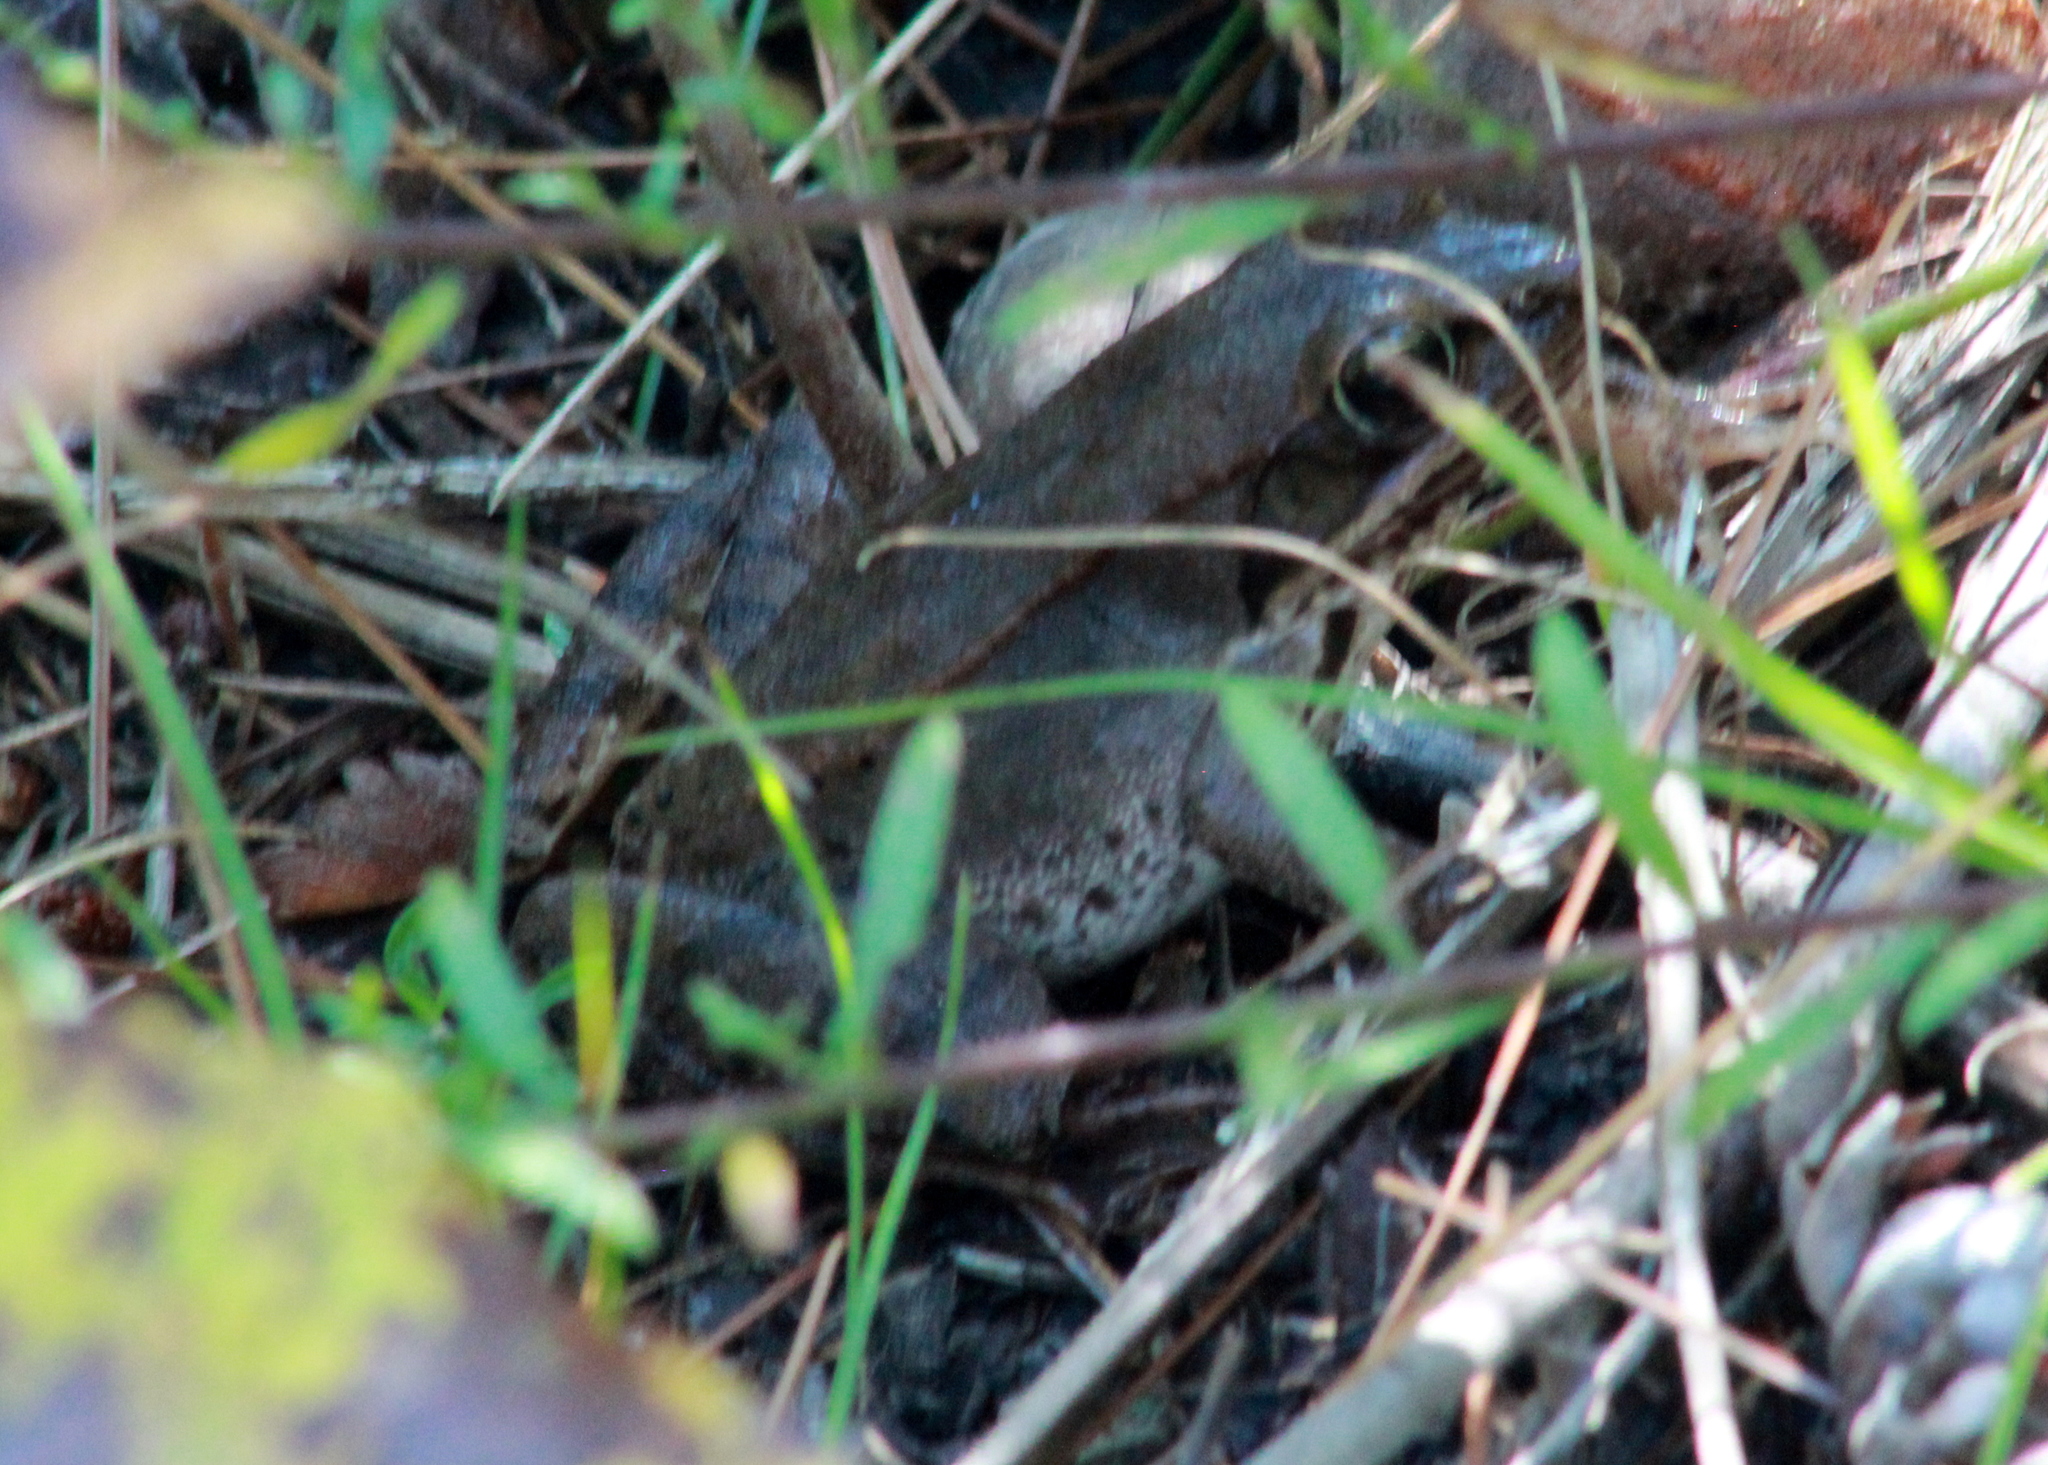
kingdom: Animalia
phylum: Chordata
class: Amphibia
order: Anura
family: Ranidae
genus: Lithobates
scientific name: Lithobates sylvaticus
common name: Wood frog
